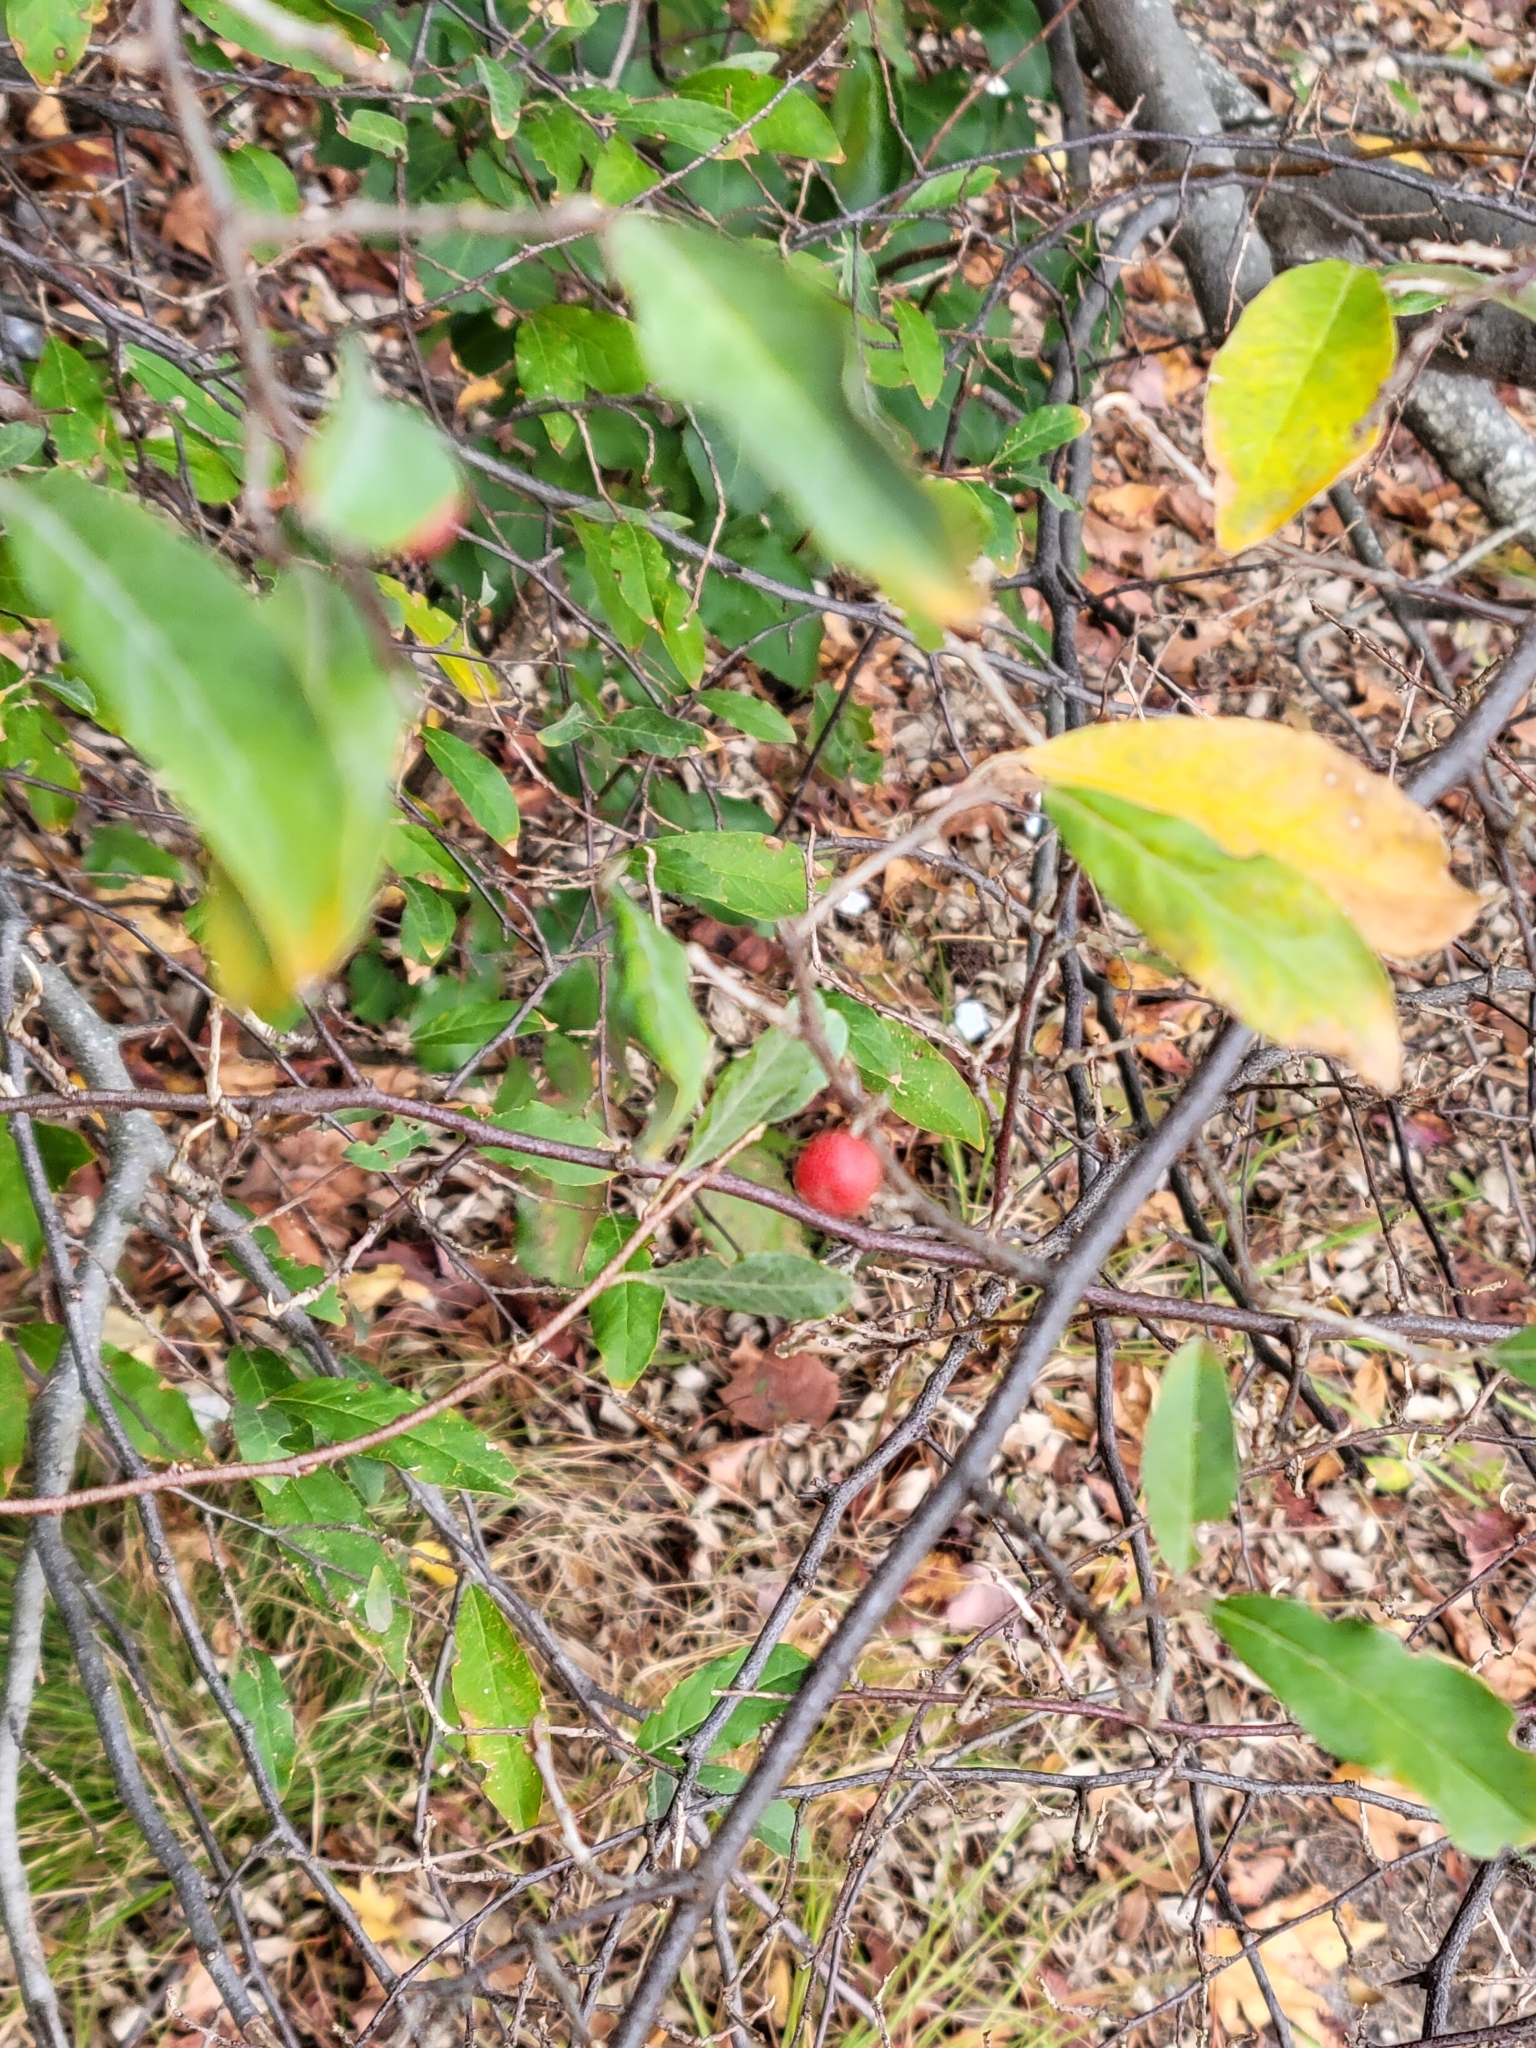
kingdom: Plantae
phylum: Tracheophyta
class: Magnoliopsida
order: Rosales
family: Elaeagnaceae
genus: Elaeagnus
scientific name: Elaeagnus umbellata
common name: Autumn olive
